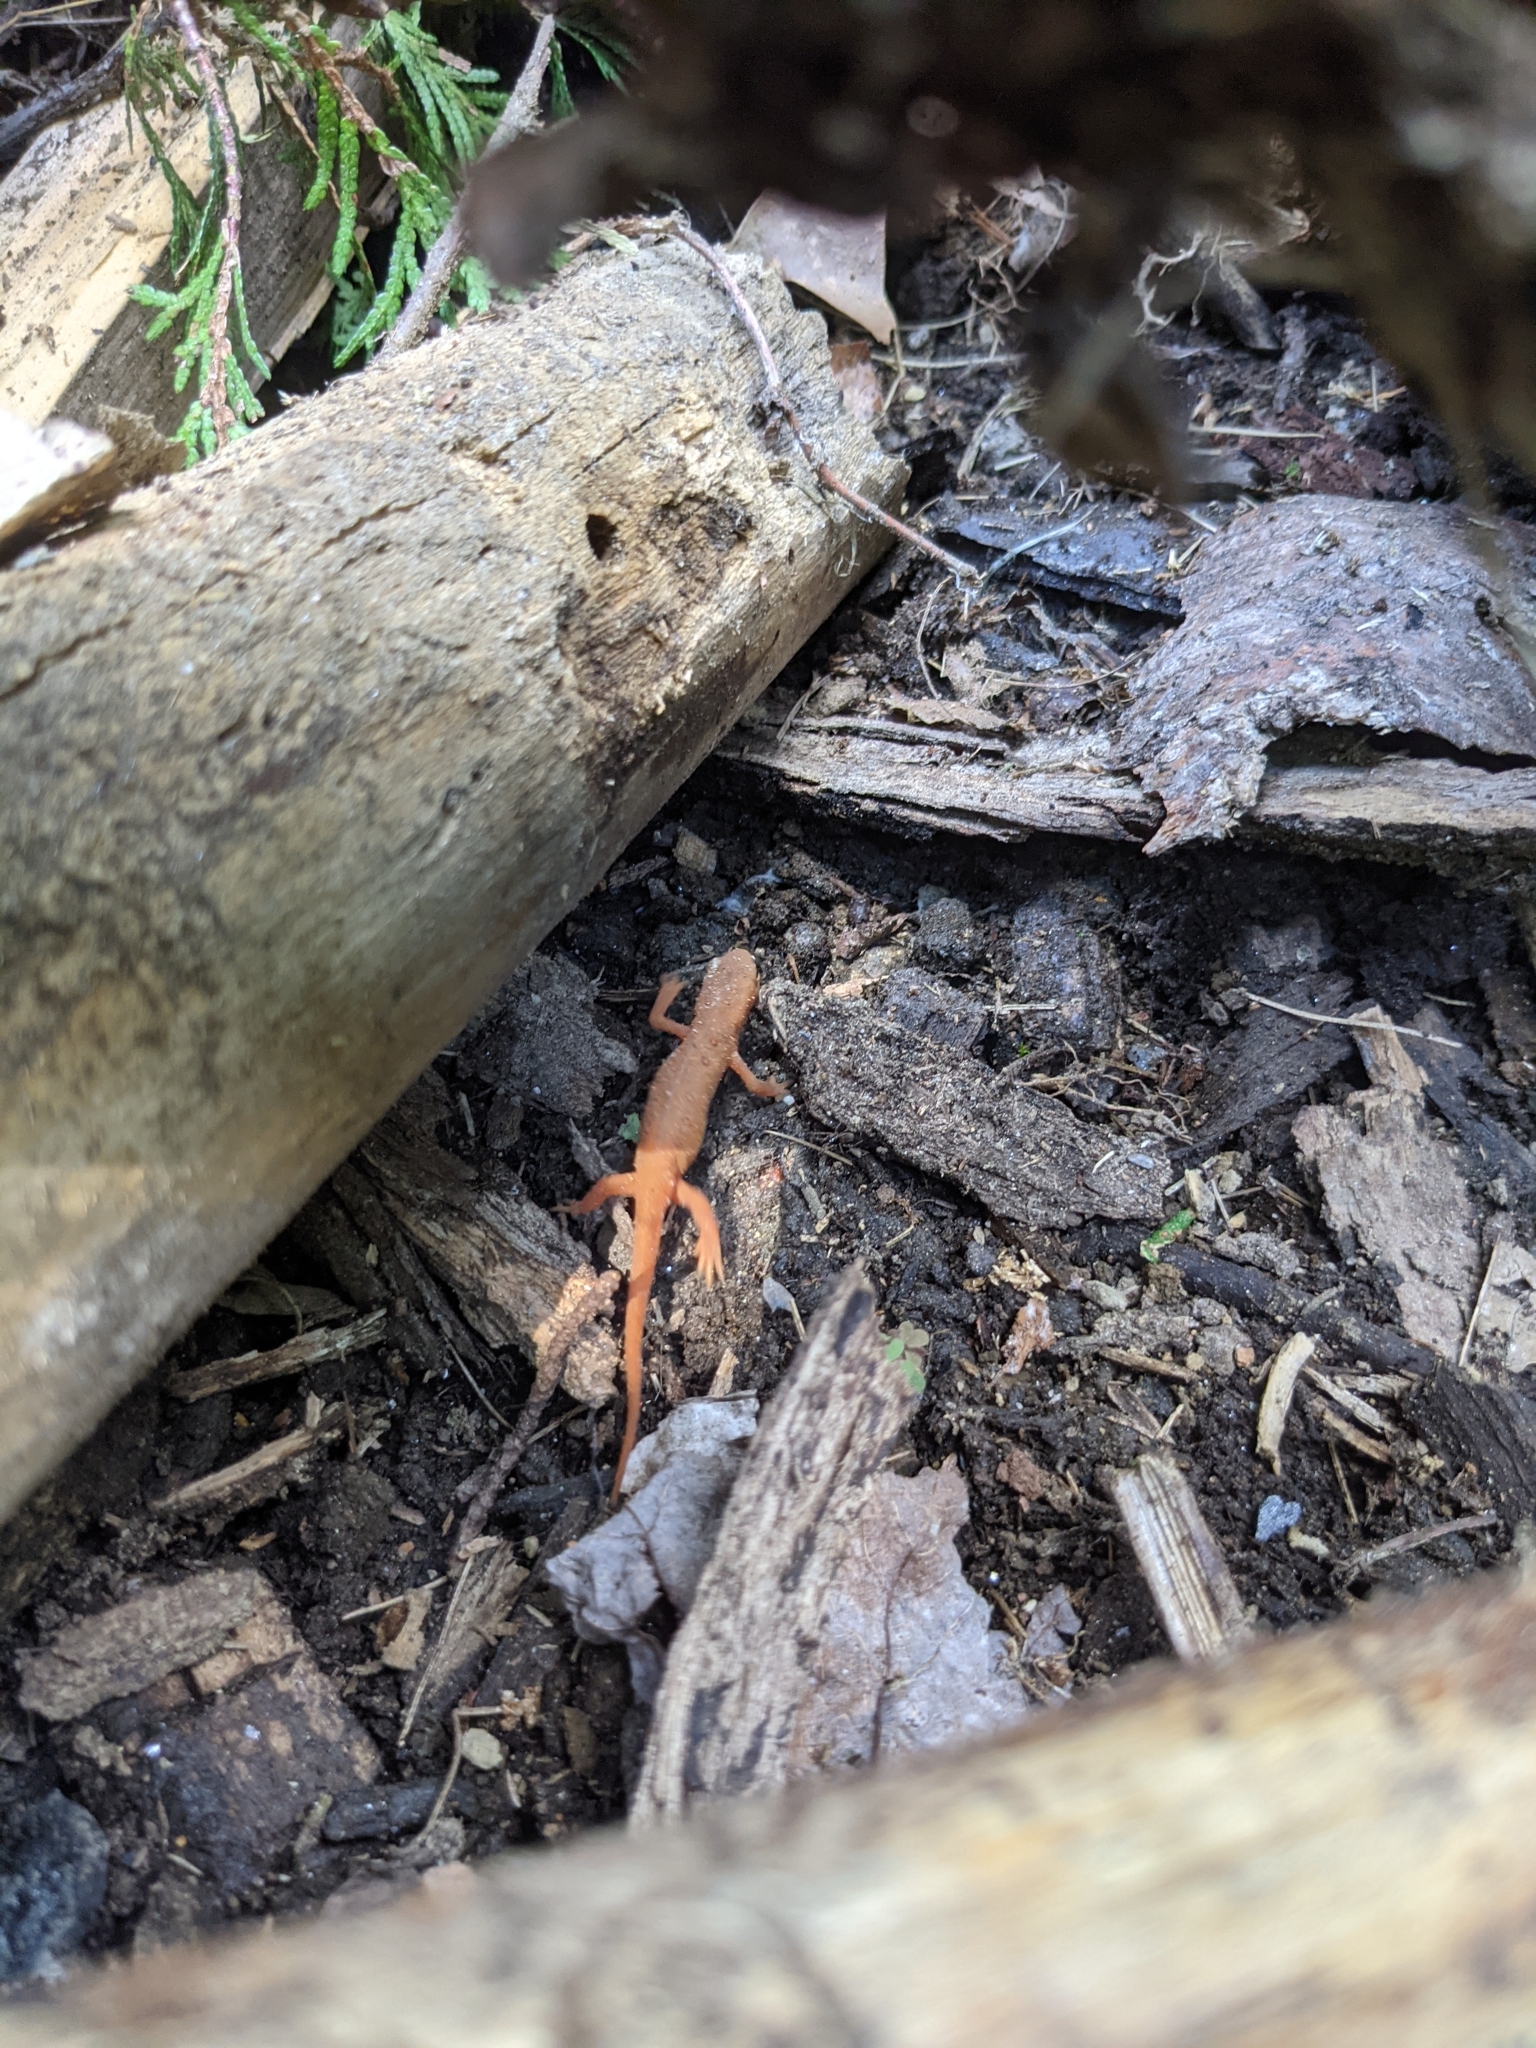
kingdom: Animalia
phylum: Chordata
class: Amphibia
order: Caudata
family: Salamandridae
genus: Notophthalmus
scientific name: Notophthalmus viridescens
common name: Eastern newt
